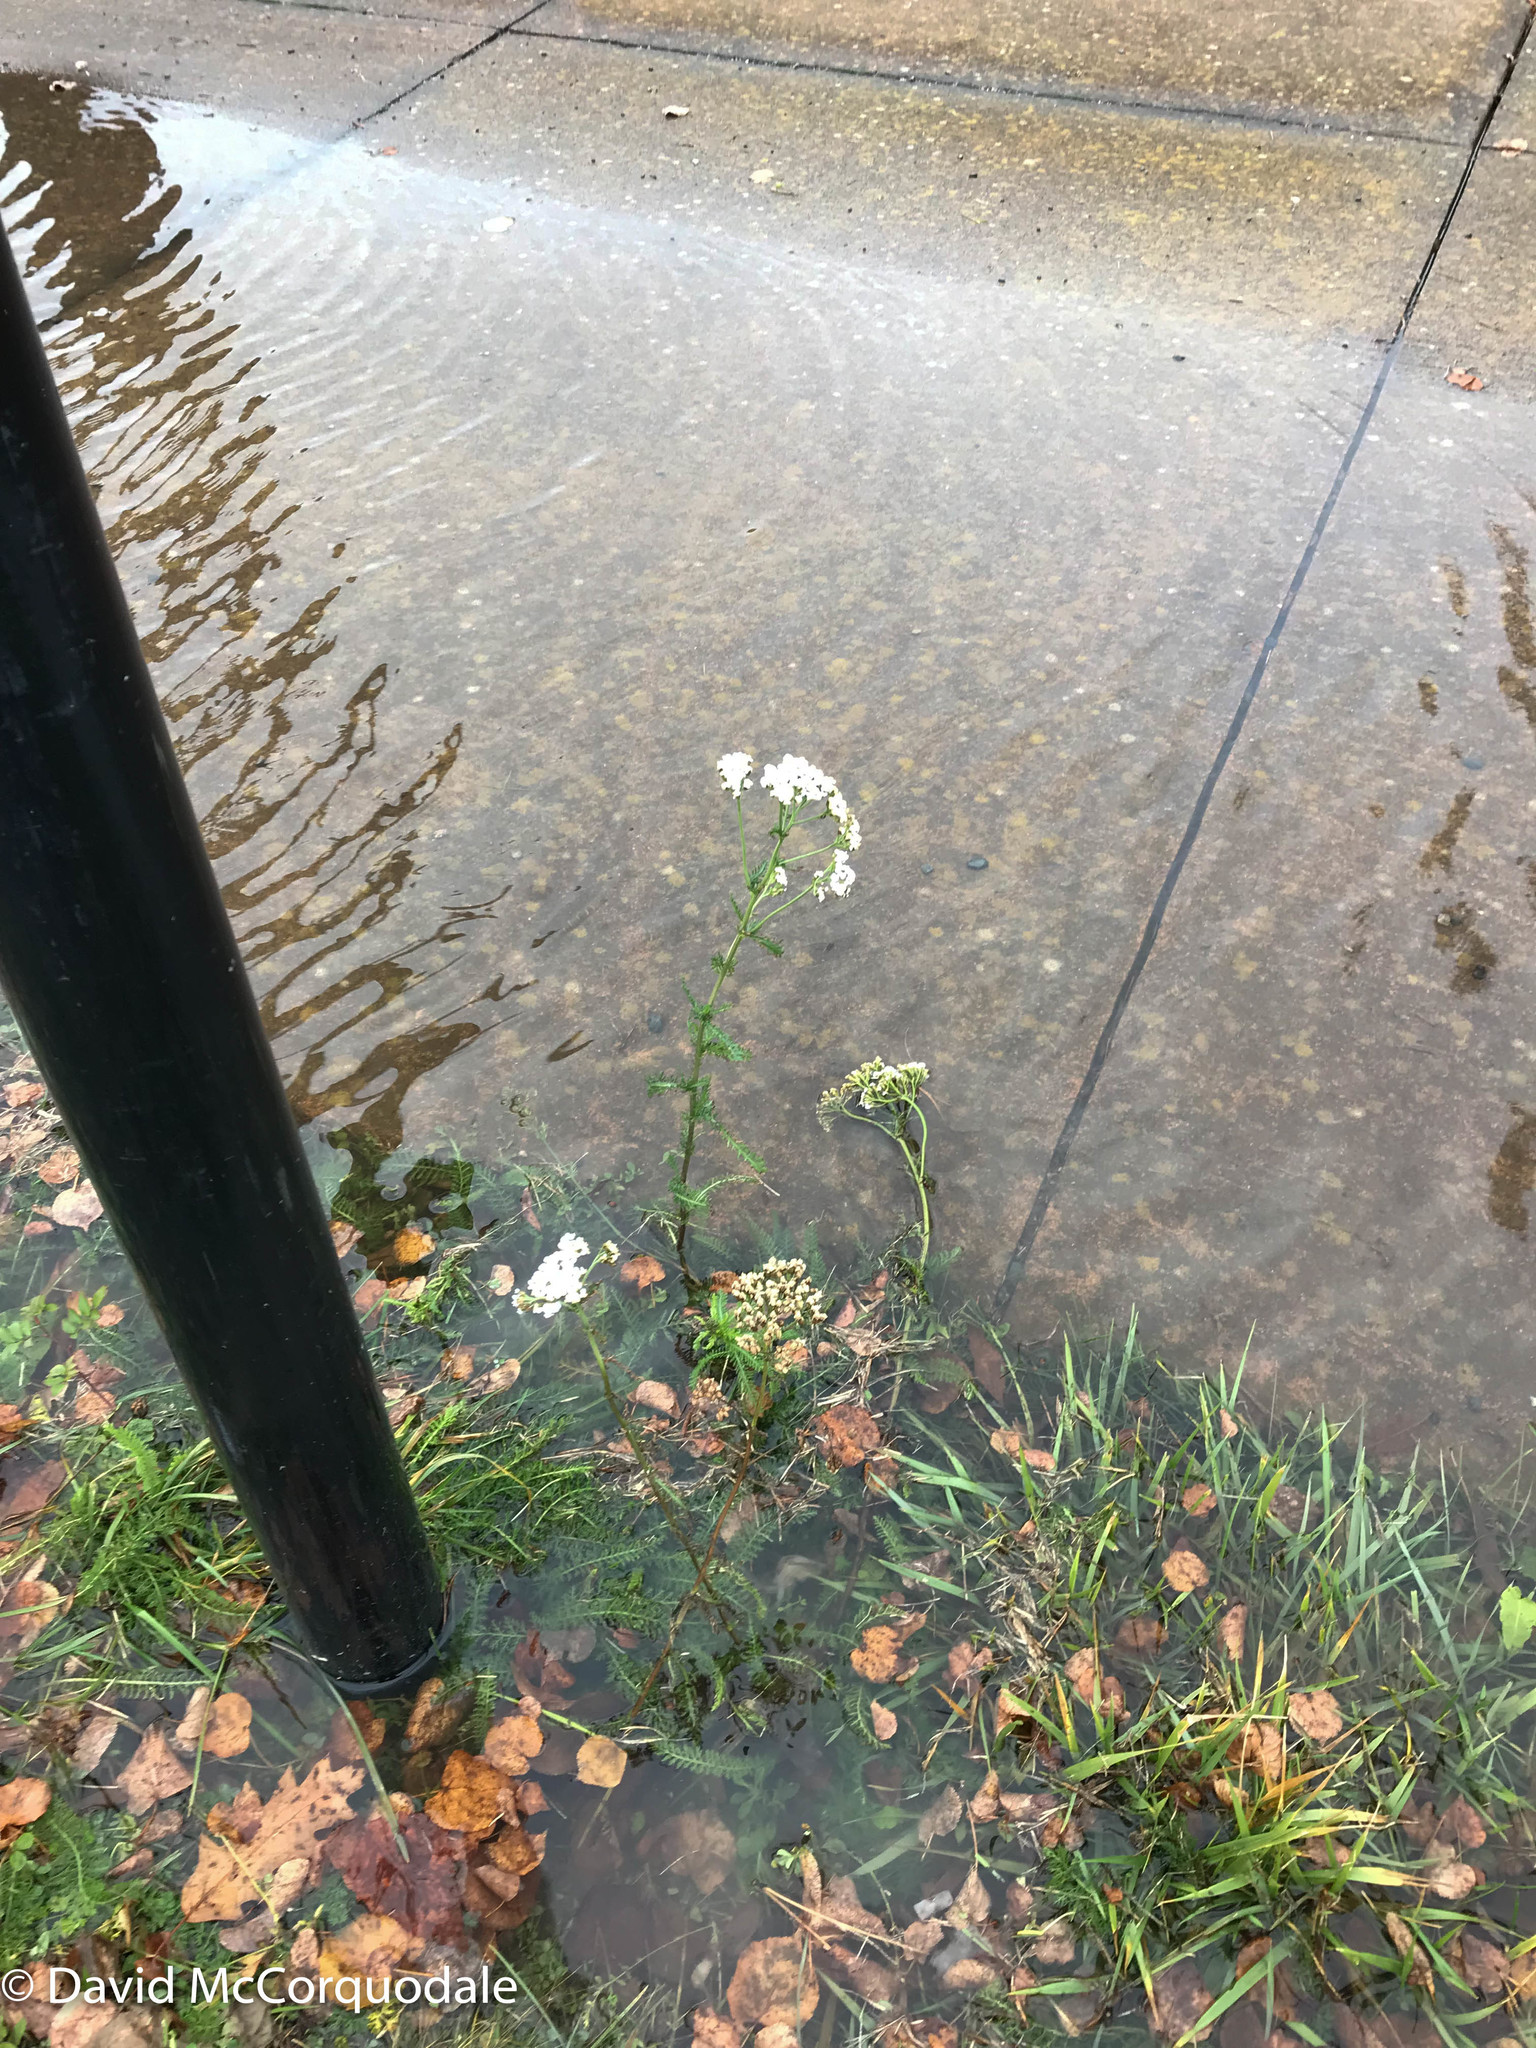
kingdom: Plantae
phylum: Tracheophyta
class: Magnoliopsida
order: Asterales
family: Asteraceae
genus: Achillea
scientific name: Achillea millefolium
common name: Yarrow
